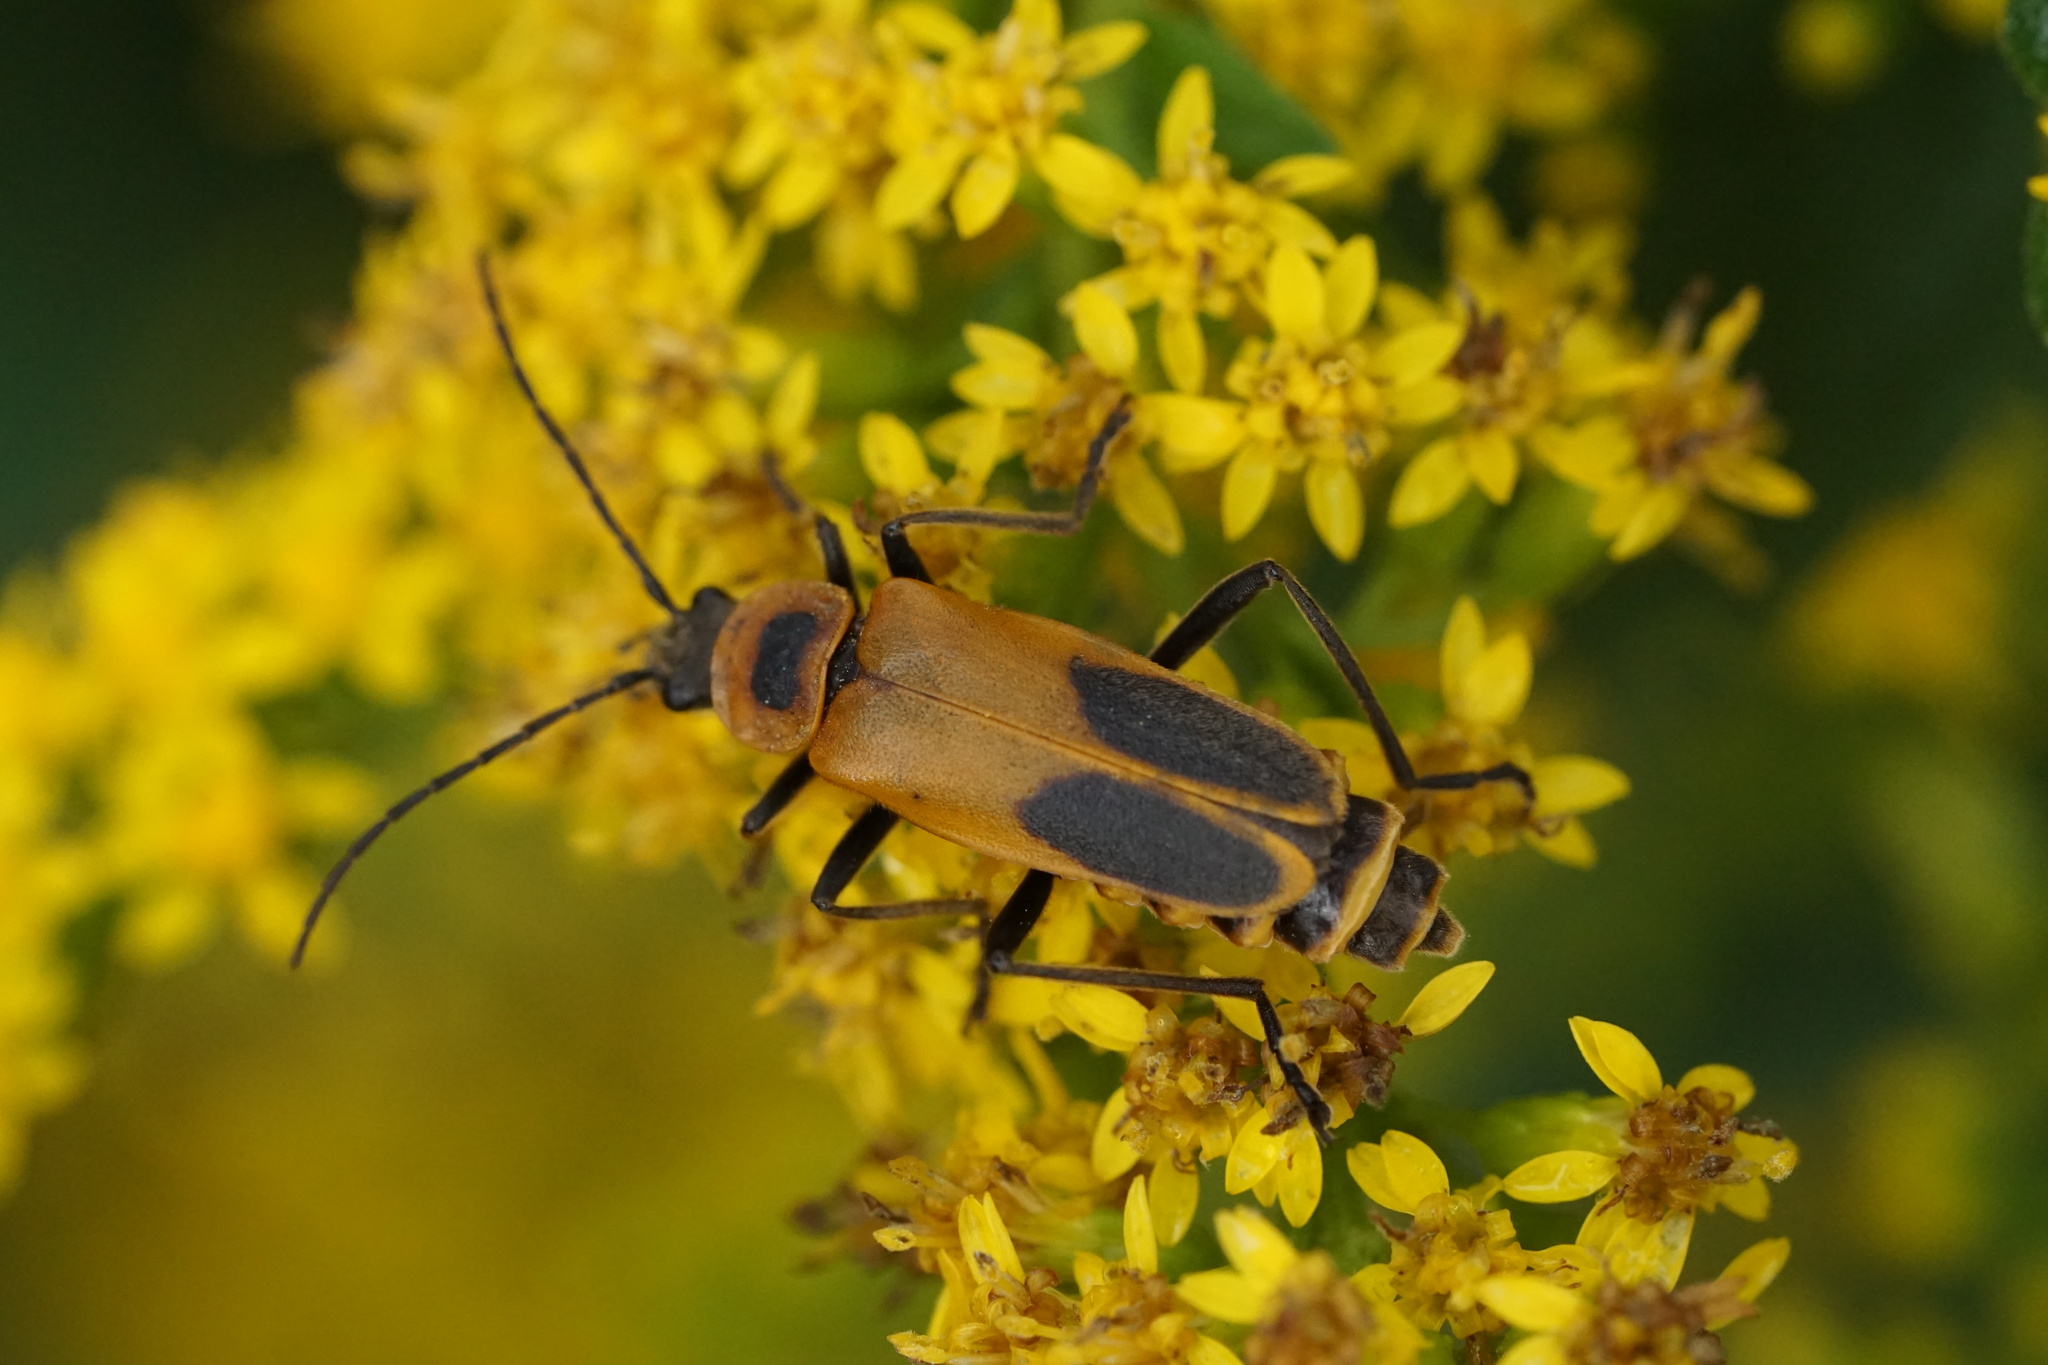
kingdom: Animalia
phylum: Arthropoda
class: Insecta
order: Coleoptera
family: Cantharidae
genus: Chauliognathus
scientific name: Chauliognathus pensylvanicus
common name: Goldenrod soldier beetle
